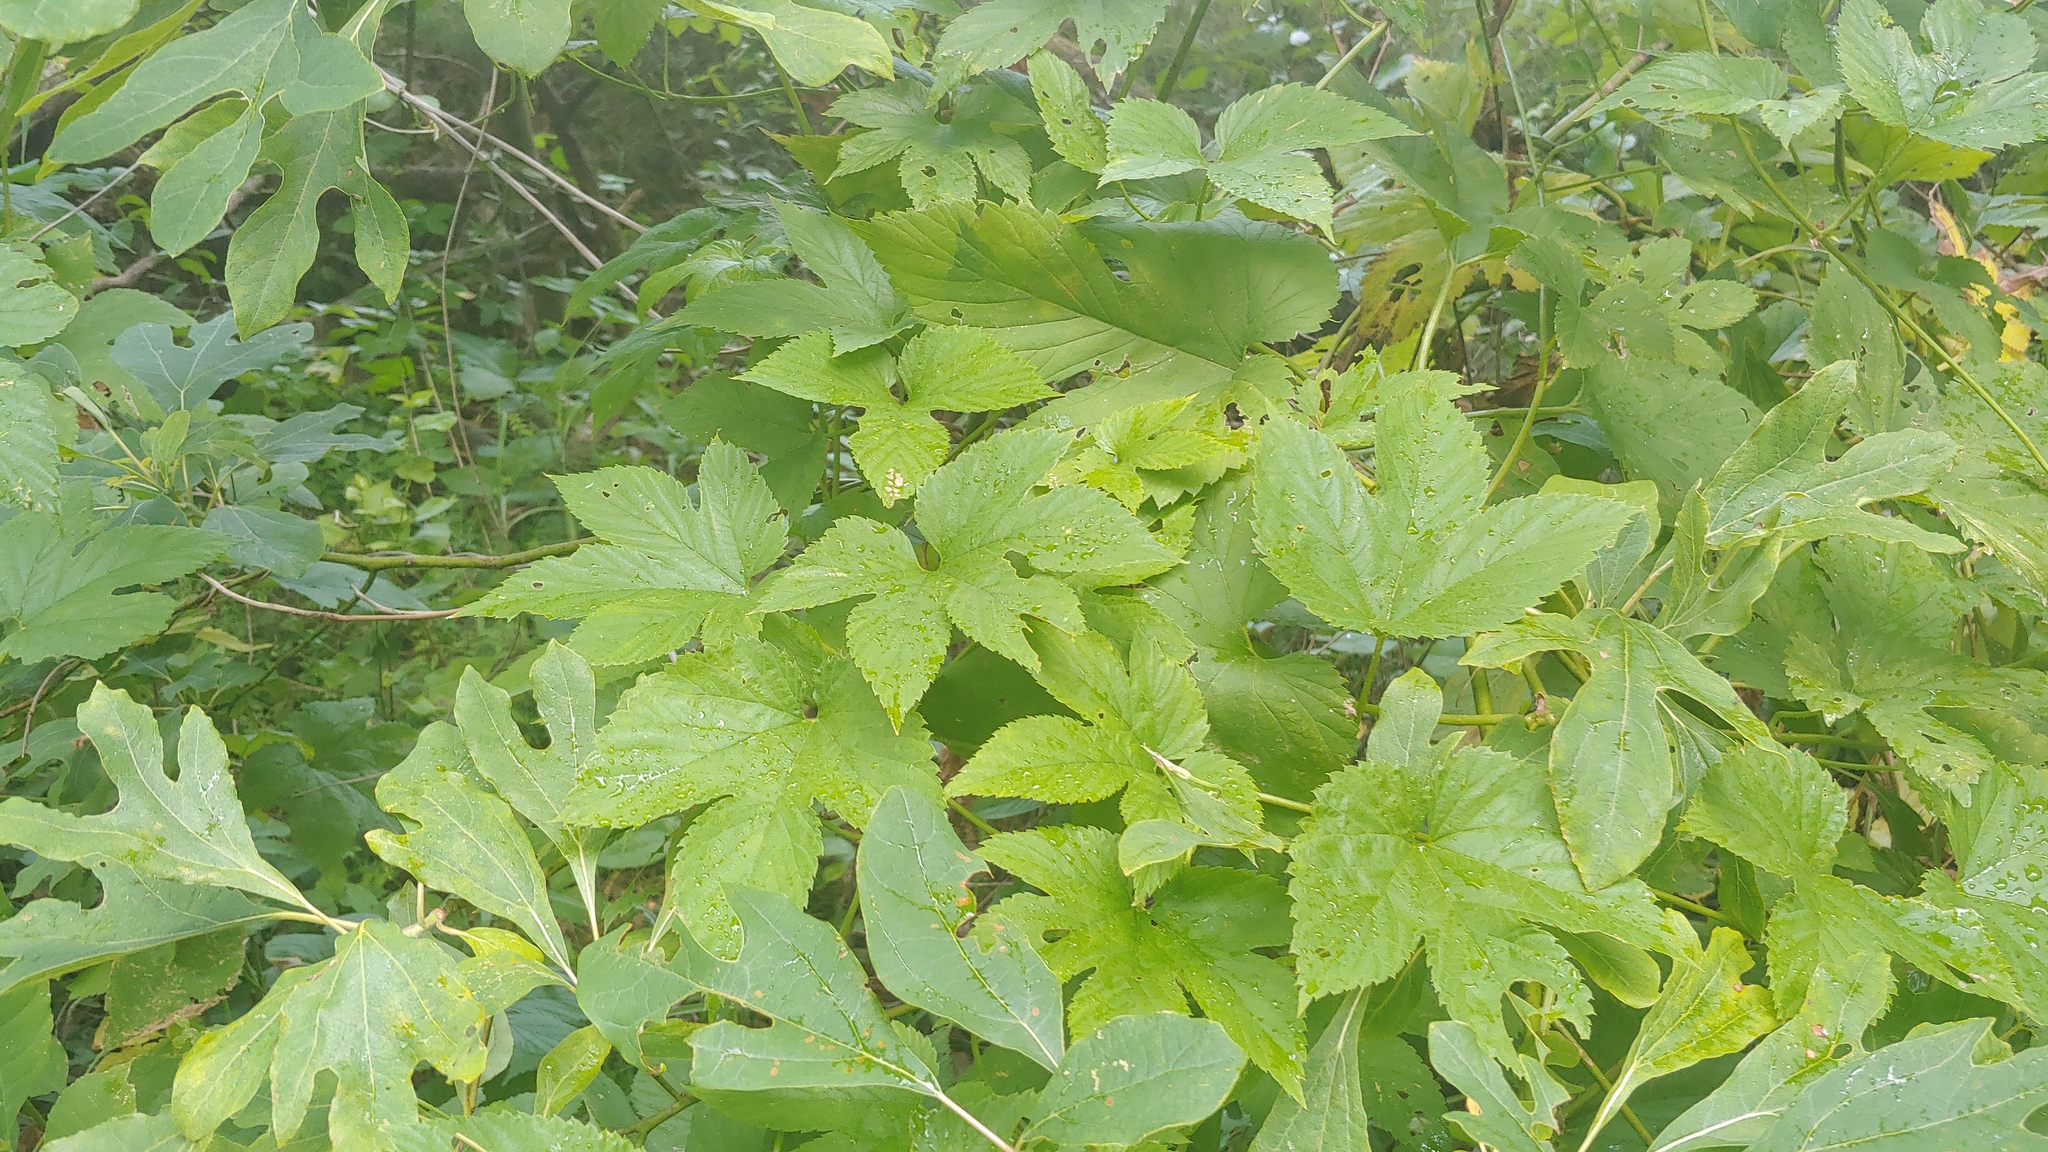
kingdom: Plantae
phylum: Tracheophyta
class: Magnoliopsida
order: Rosales
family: Cannabaceae
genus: Humulus
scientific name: Humulus lupulus
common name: Hop
